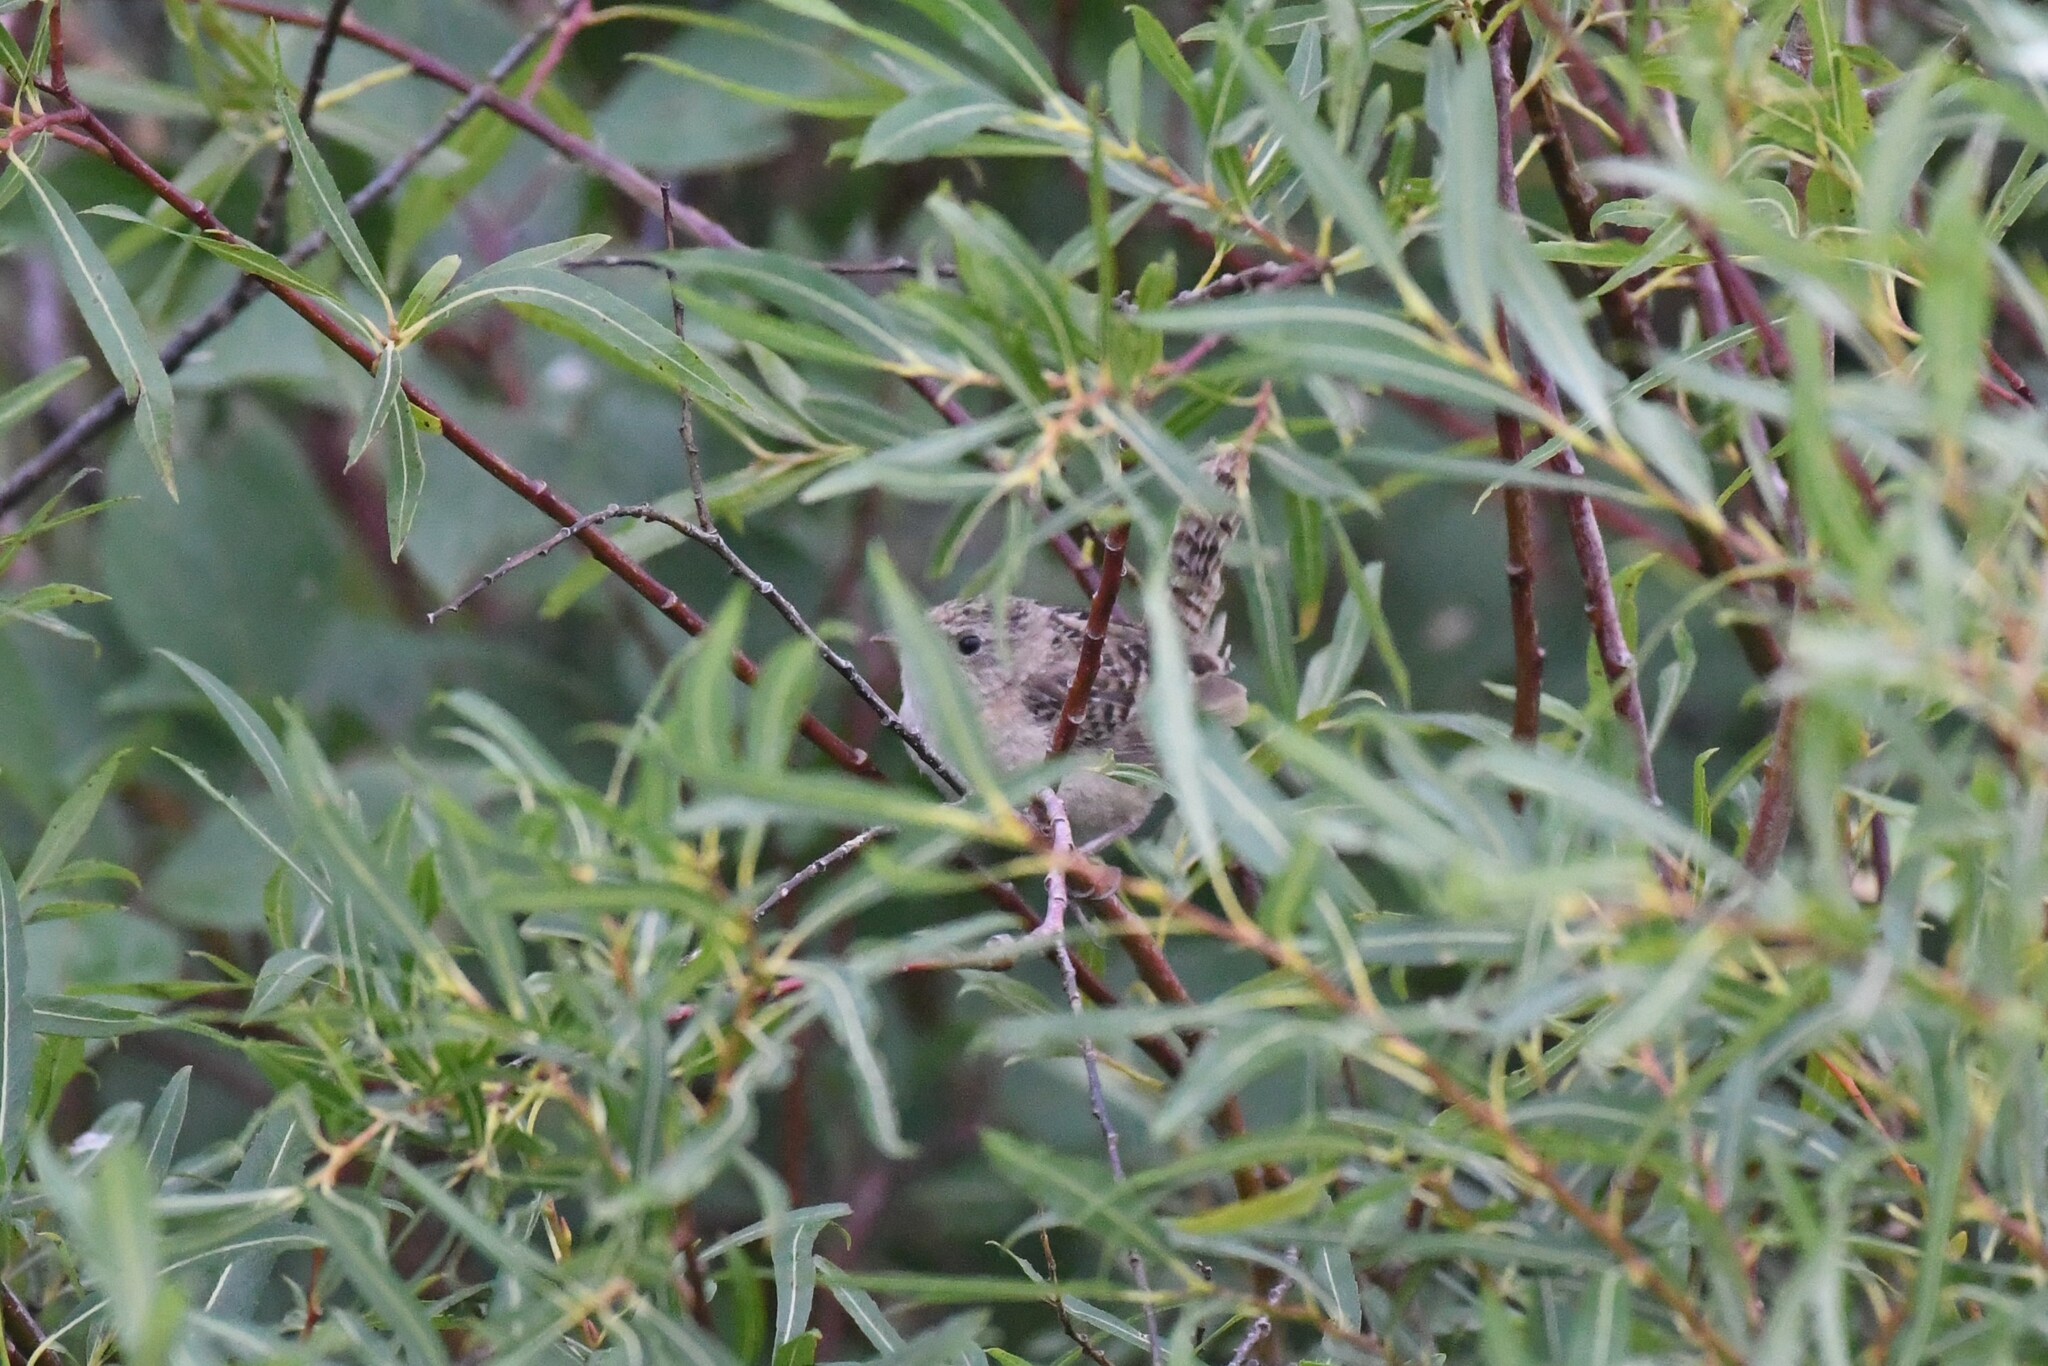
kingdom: Animalia
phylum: Chordata
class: Aves
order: Passeriformes
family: Troglodytidae
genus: Cistothorus
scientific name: Cistothorus platensis
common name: Sedge wren
